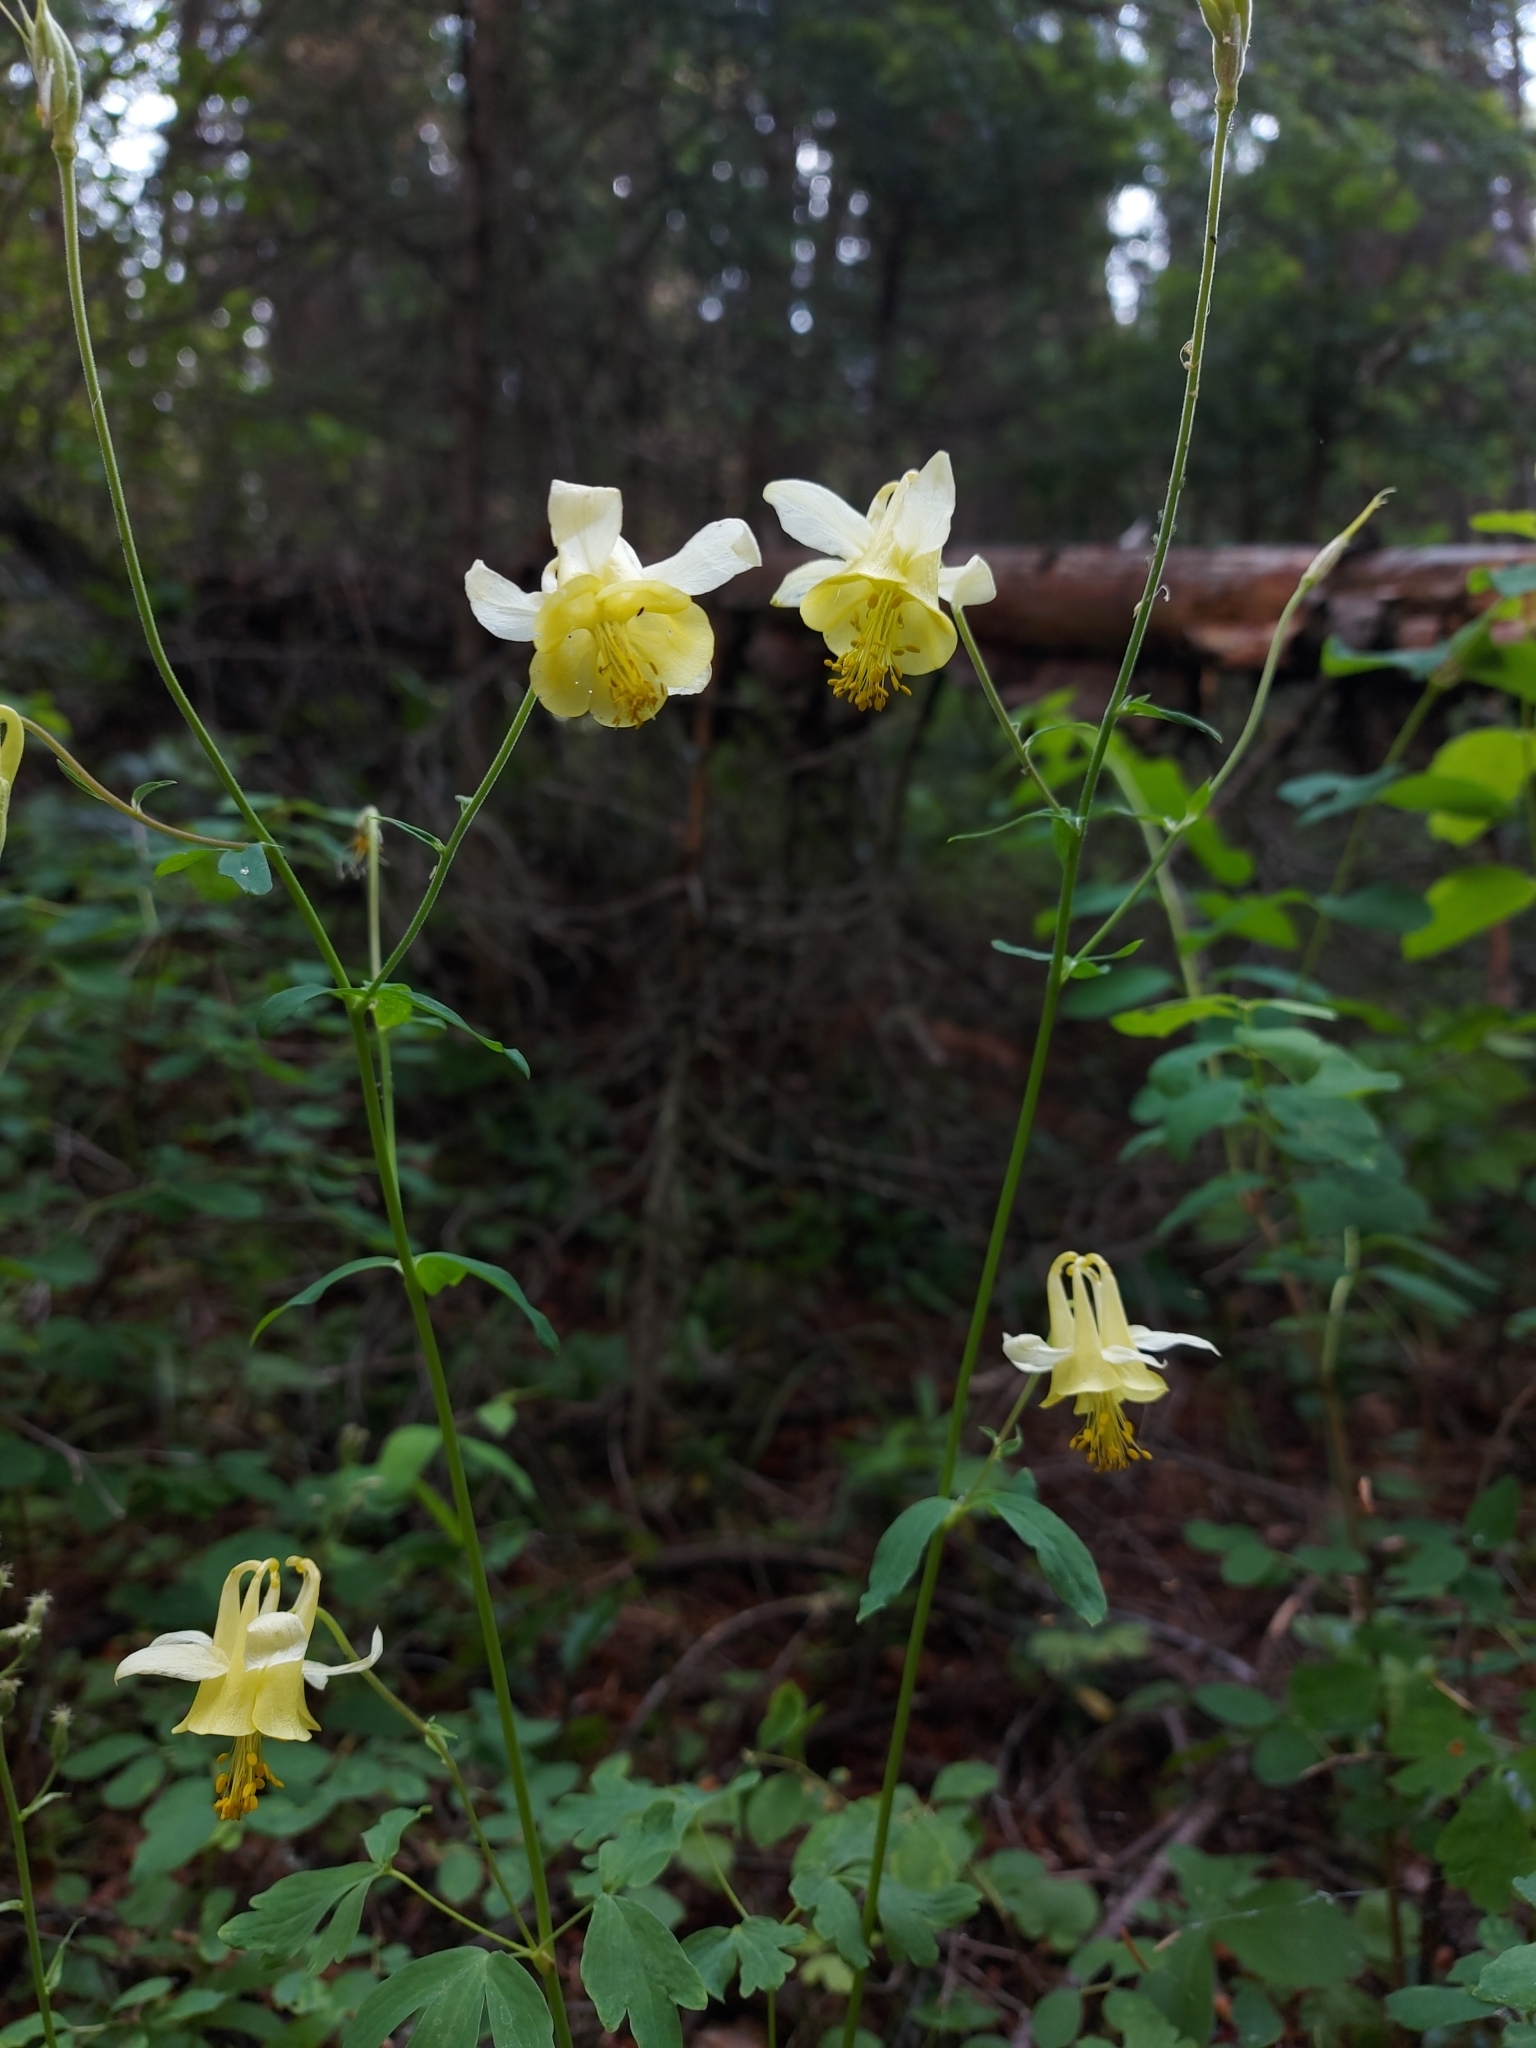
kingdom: Plantae
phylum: Tracheophyta
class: Magnoliopsida
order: Ranunculales
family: Ranunculaceae
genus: Aquilegia
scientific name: Aquilegia flavescens
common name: Yellow columbine
